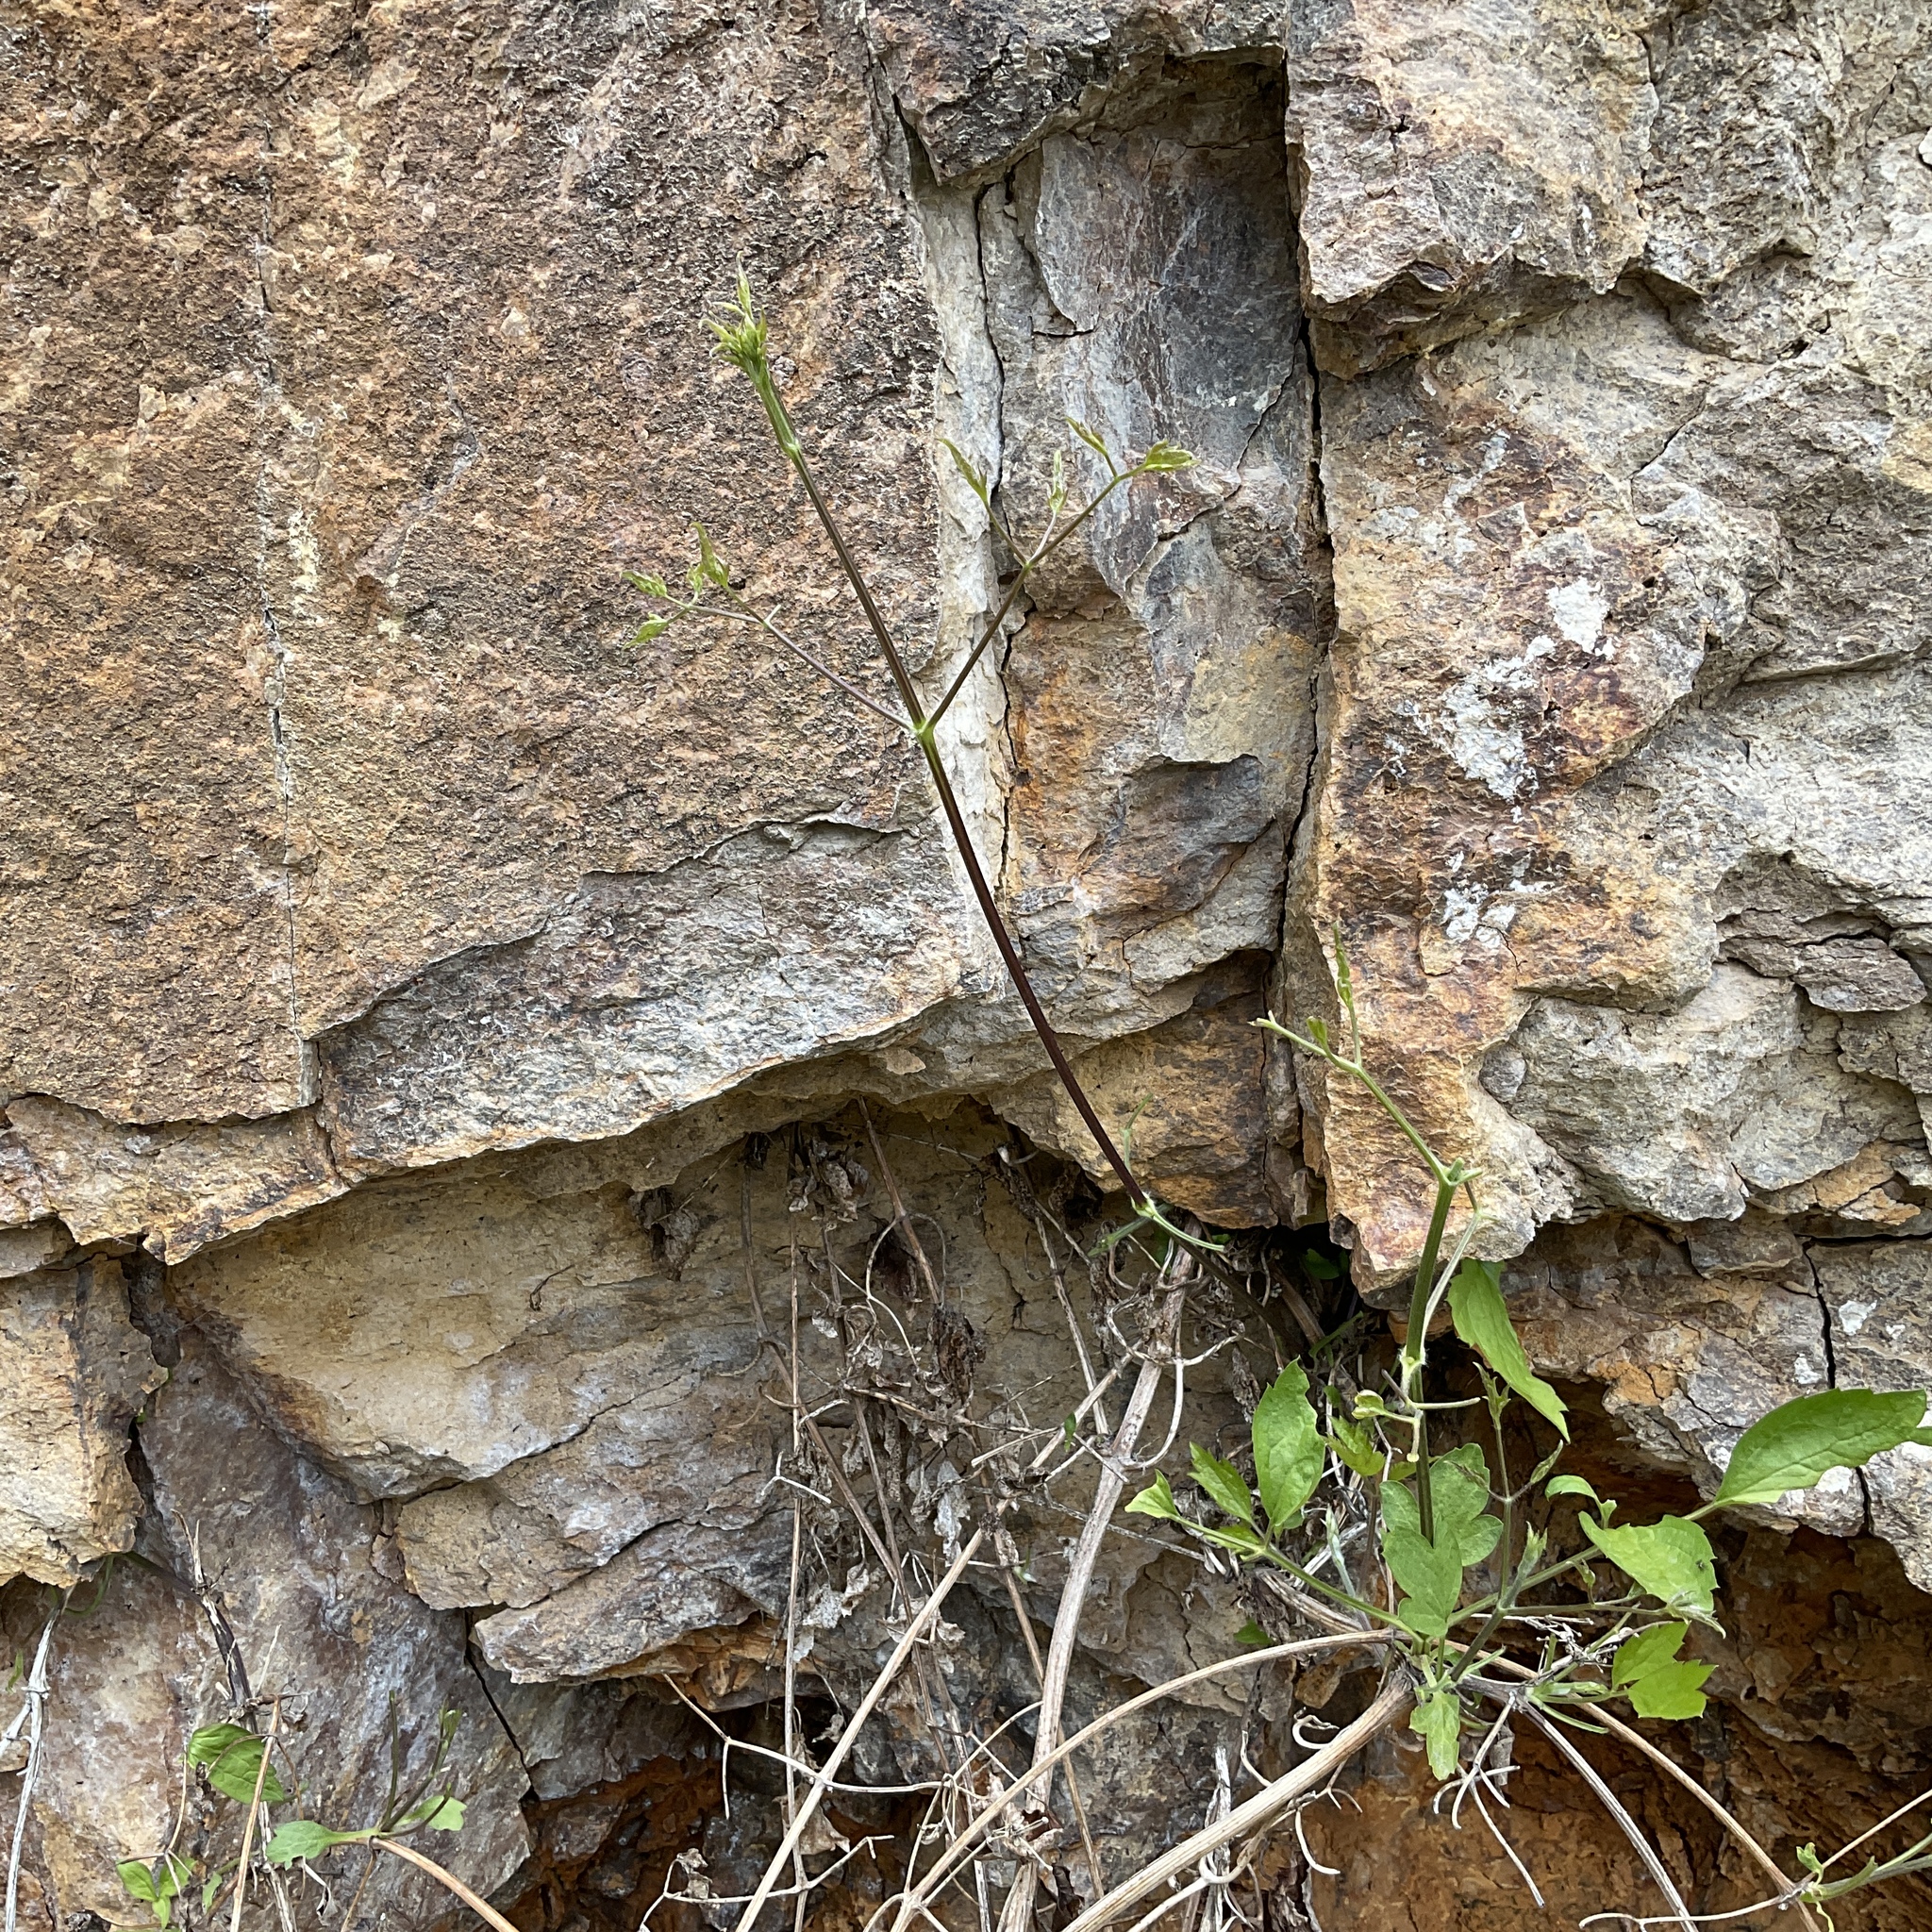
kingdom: Plantae
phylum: Tracheophyta
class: Magnoliopsida
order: Ranunculales
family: Ranunculaceae
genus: Clematis
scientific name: Clematis ligusticifolia
